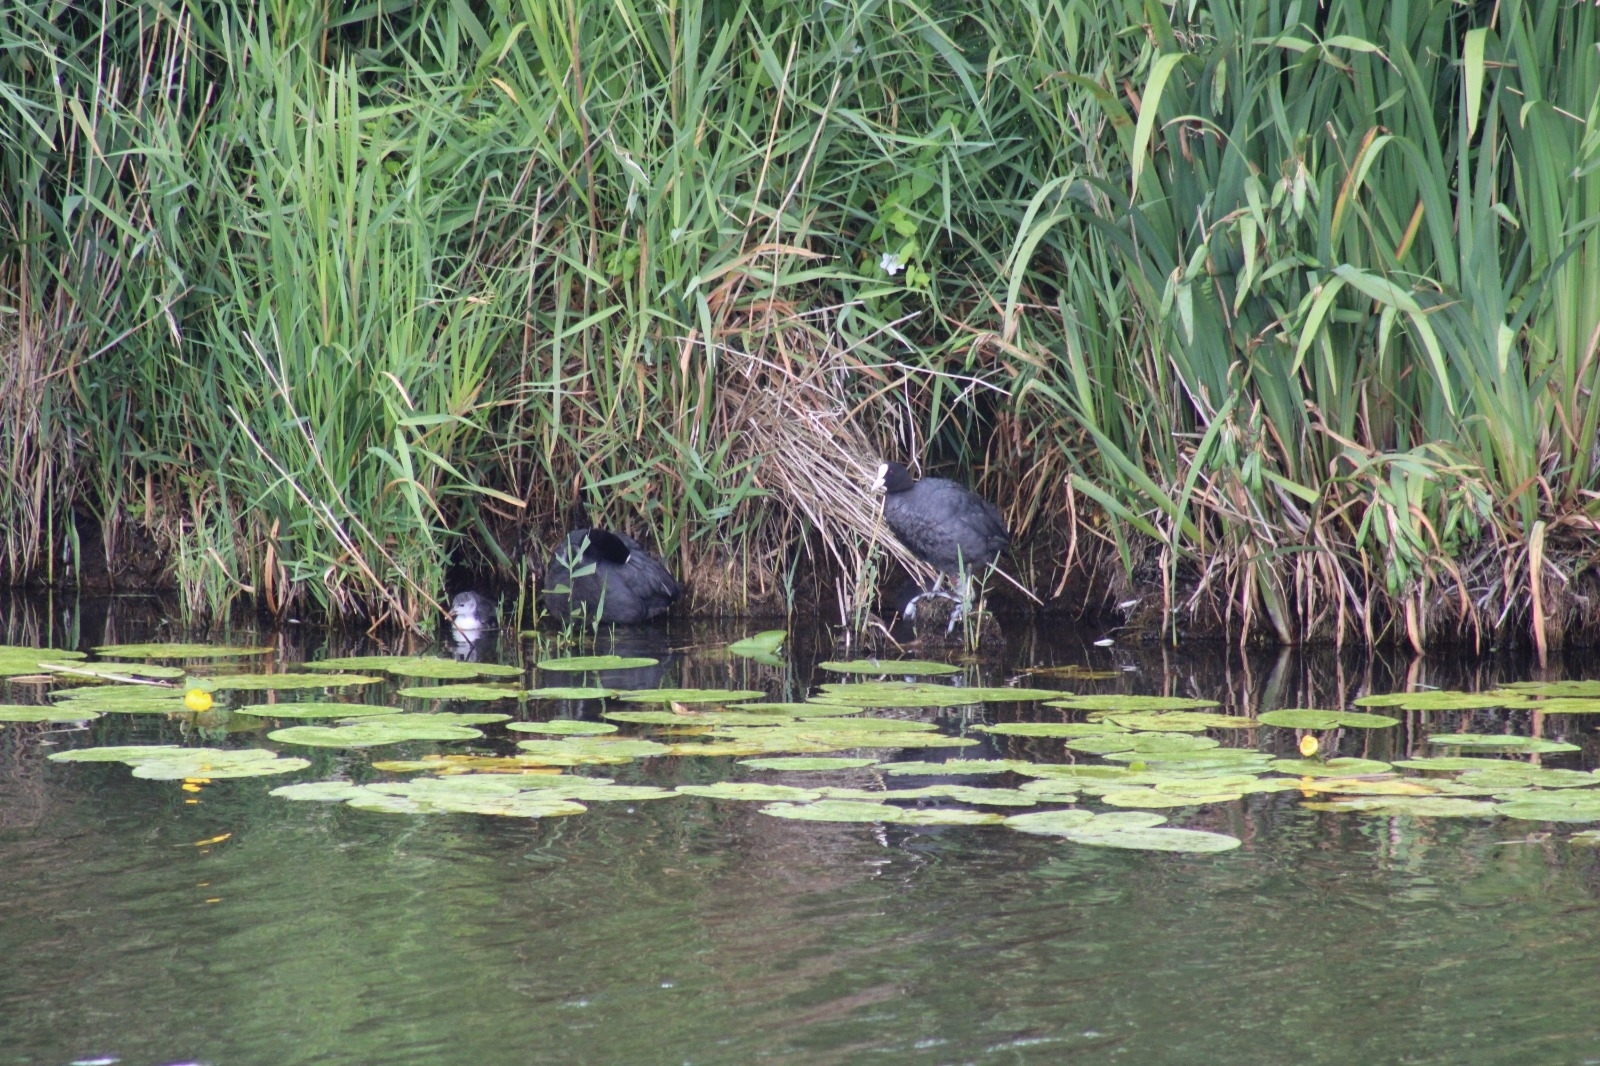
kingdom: Animalia
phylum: Chordata
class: Aves
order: Gruiformes
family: Rallidae
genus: Fulica
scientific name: Fulica atra
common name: Eurasian coot
